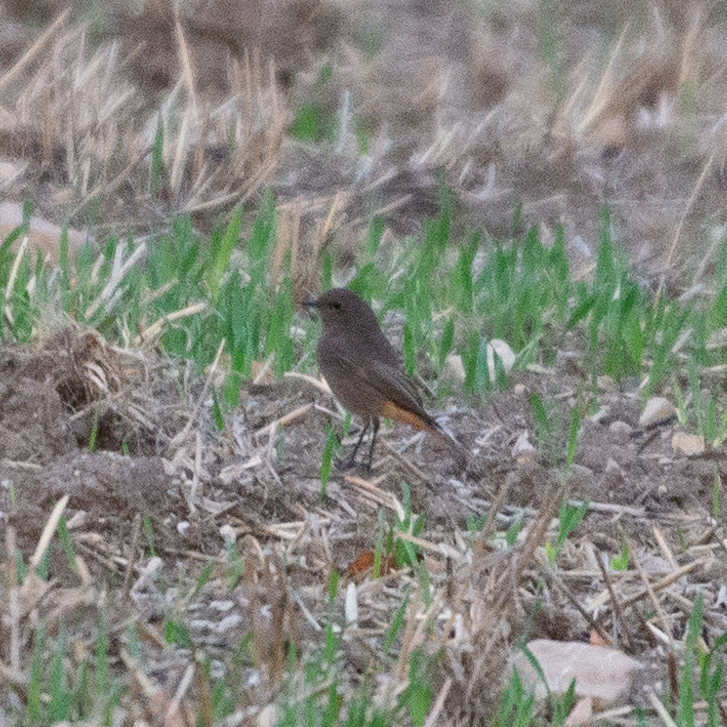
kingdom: Animalia
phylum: Chordata
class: Aves
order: Passeriformes
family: Muscicapidae
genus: Phoenicurus
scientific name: Phoenicurus ochruros
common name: Black redstart
